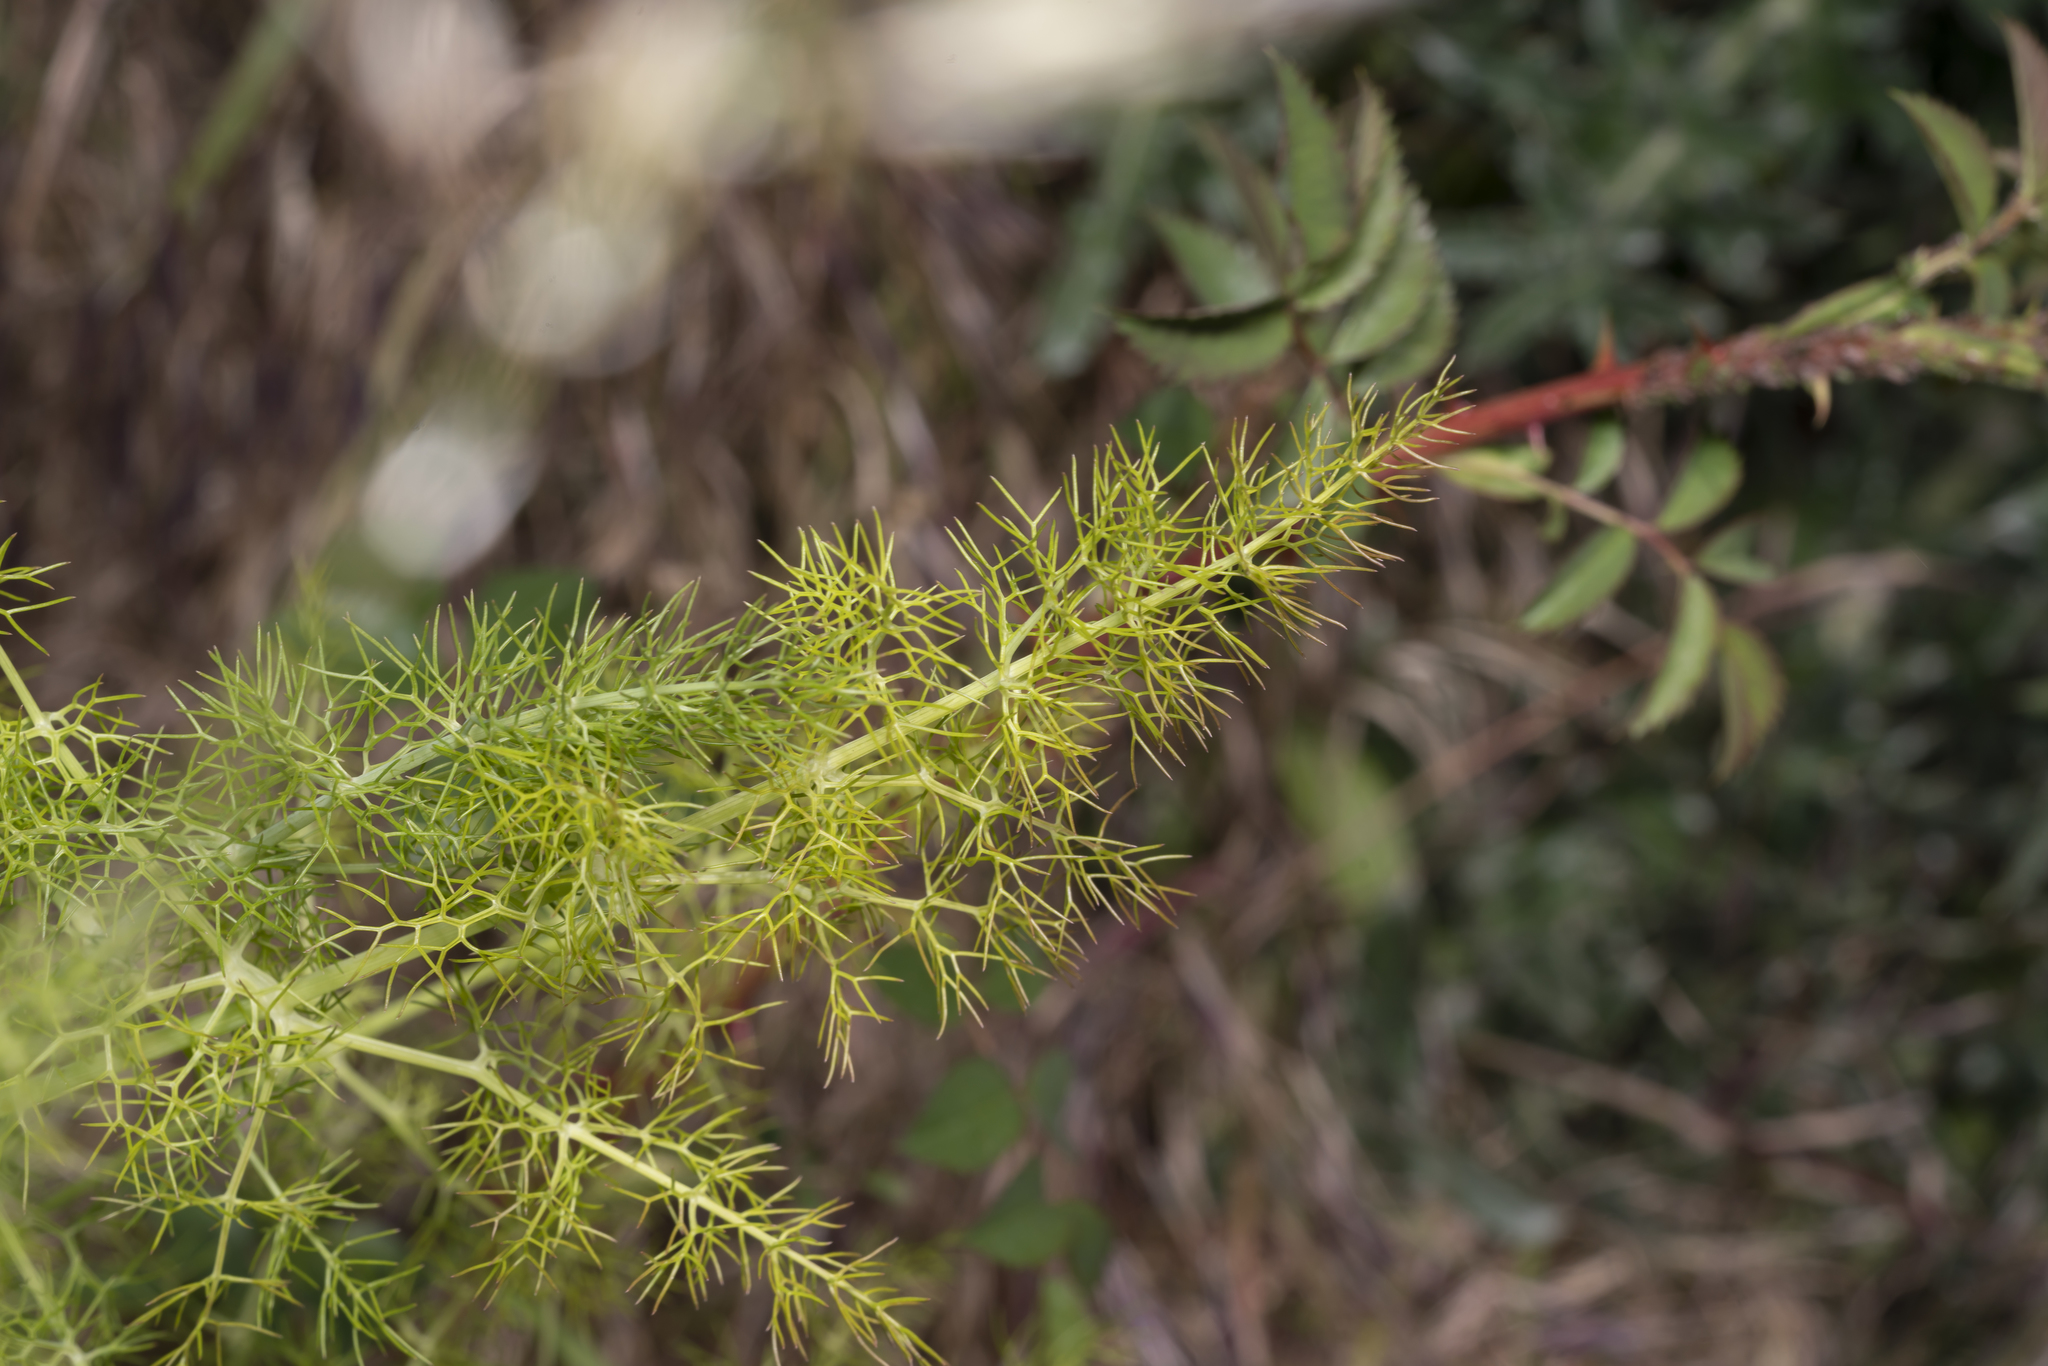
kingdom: Plantae
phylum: Tracheophyta
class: Magnoliopsida
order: Apiales
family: Apiaceae
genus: Foeniculum
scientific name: Foeniculum vulgare
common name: Fennel
